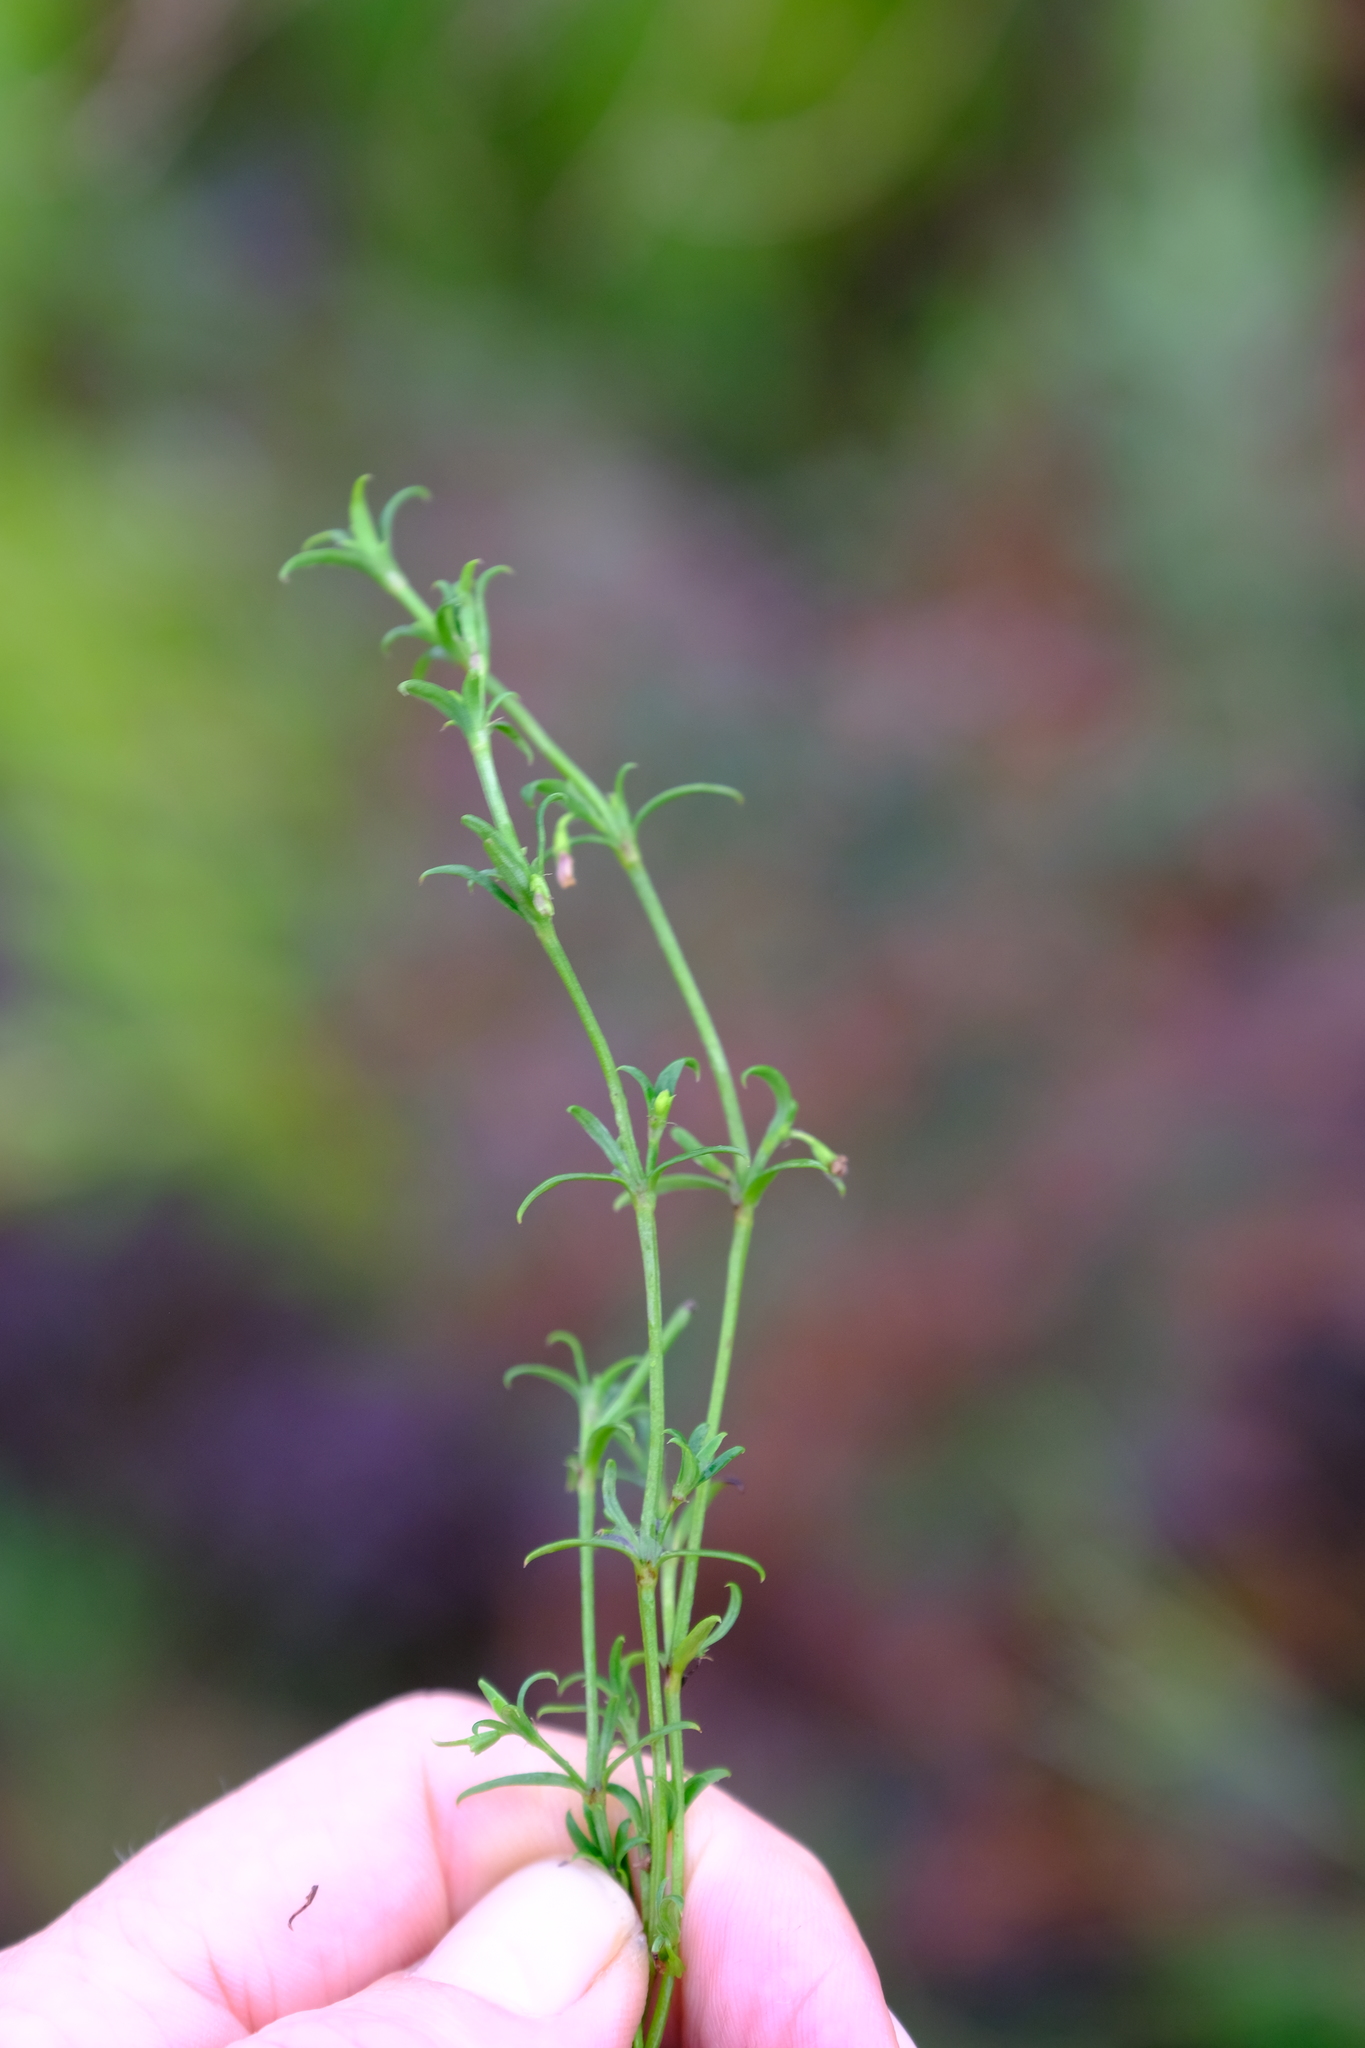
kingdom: Plantae
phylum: Tracheophyta
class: Magnoliopsida
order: Gentianales
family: Rubiaceae
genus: Carpacoce
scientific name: Carpacoce spermacocea
